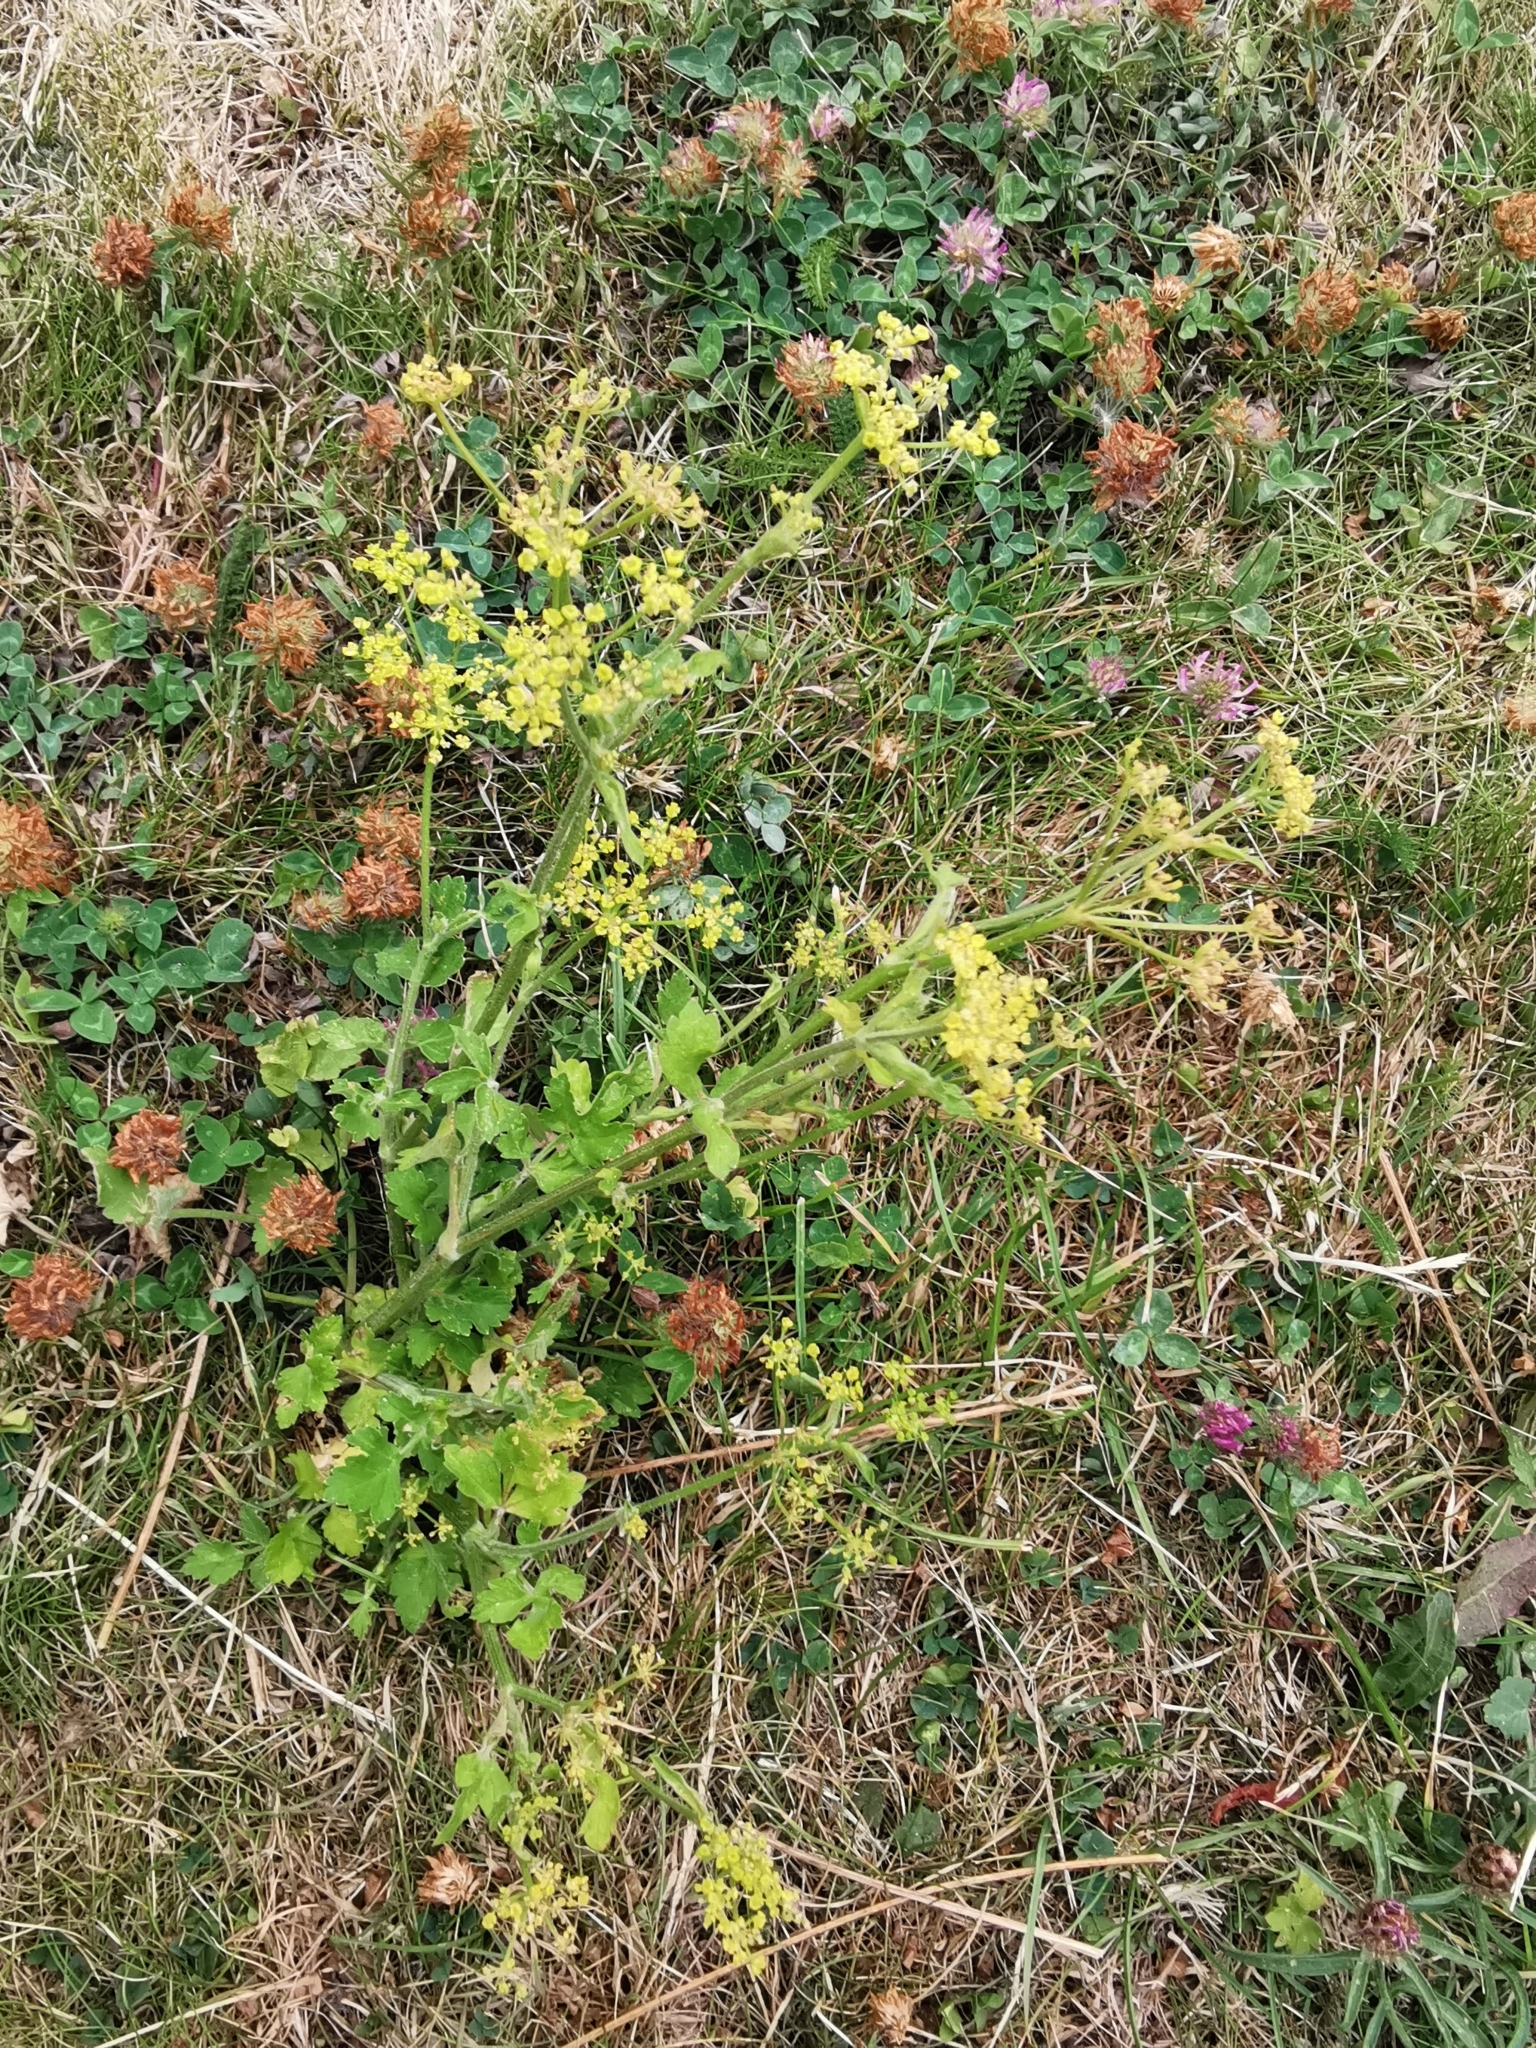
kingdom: Plantae
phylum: Tracheophyta
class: Magnoliopsida
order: Apiales
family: Apiaceae
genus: Pastinaca
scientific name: Pastinaca sativa
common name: Wild parsnip
